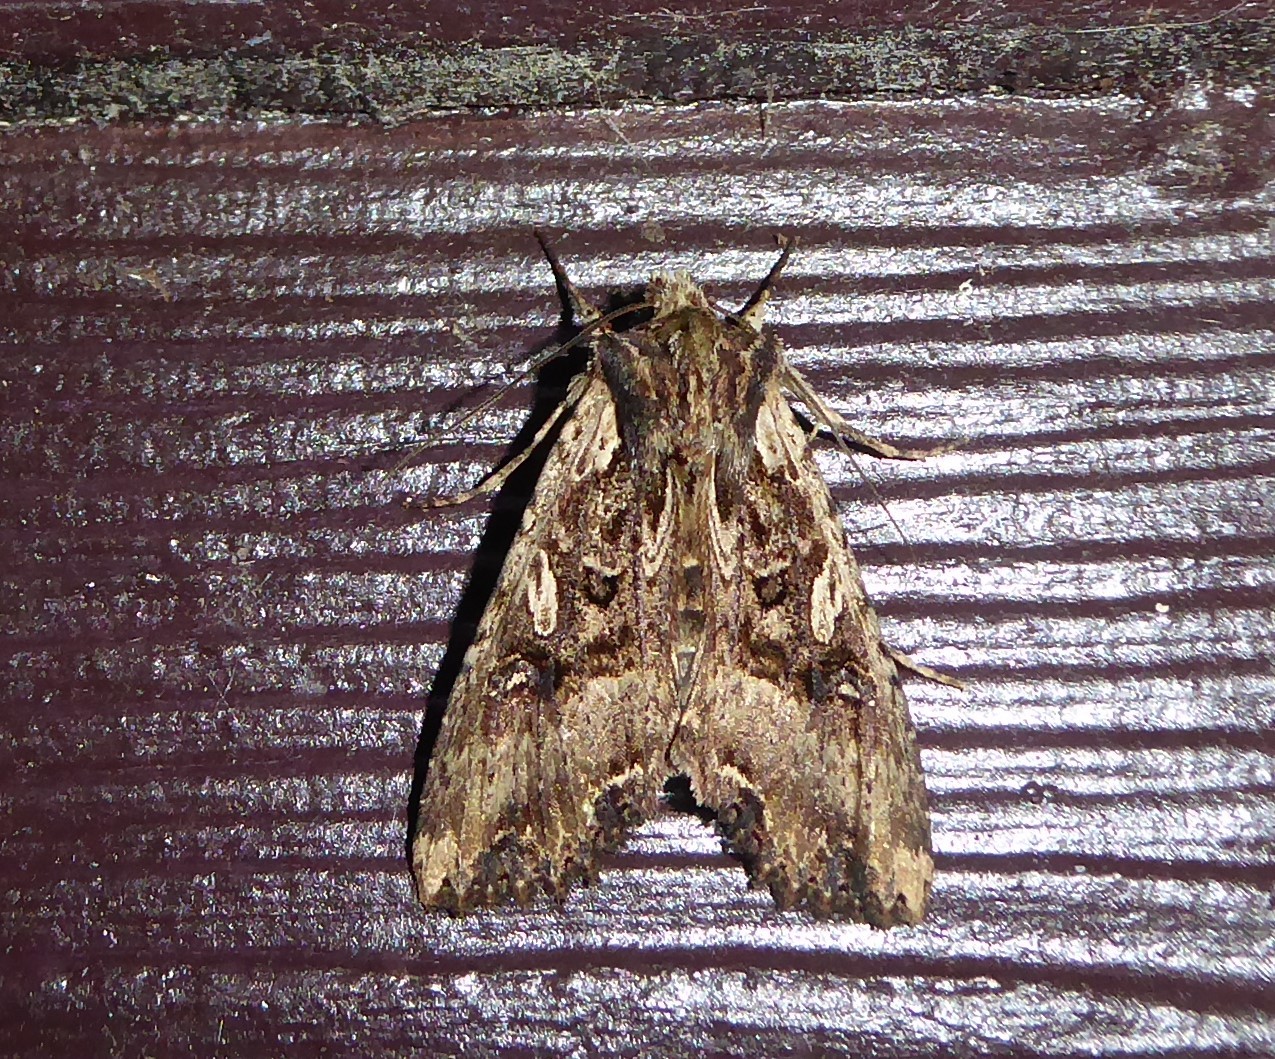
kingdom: Animalia
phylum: Arthropoda
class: Insecta
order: Lepidoptera
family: Noctuidae
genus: Meterana
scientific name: Meterana stipata
